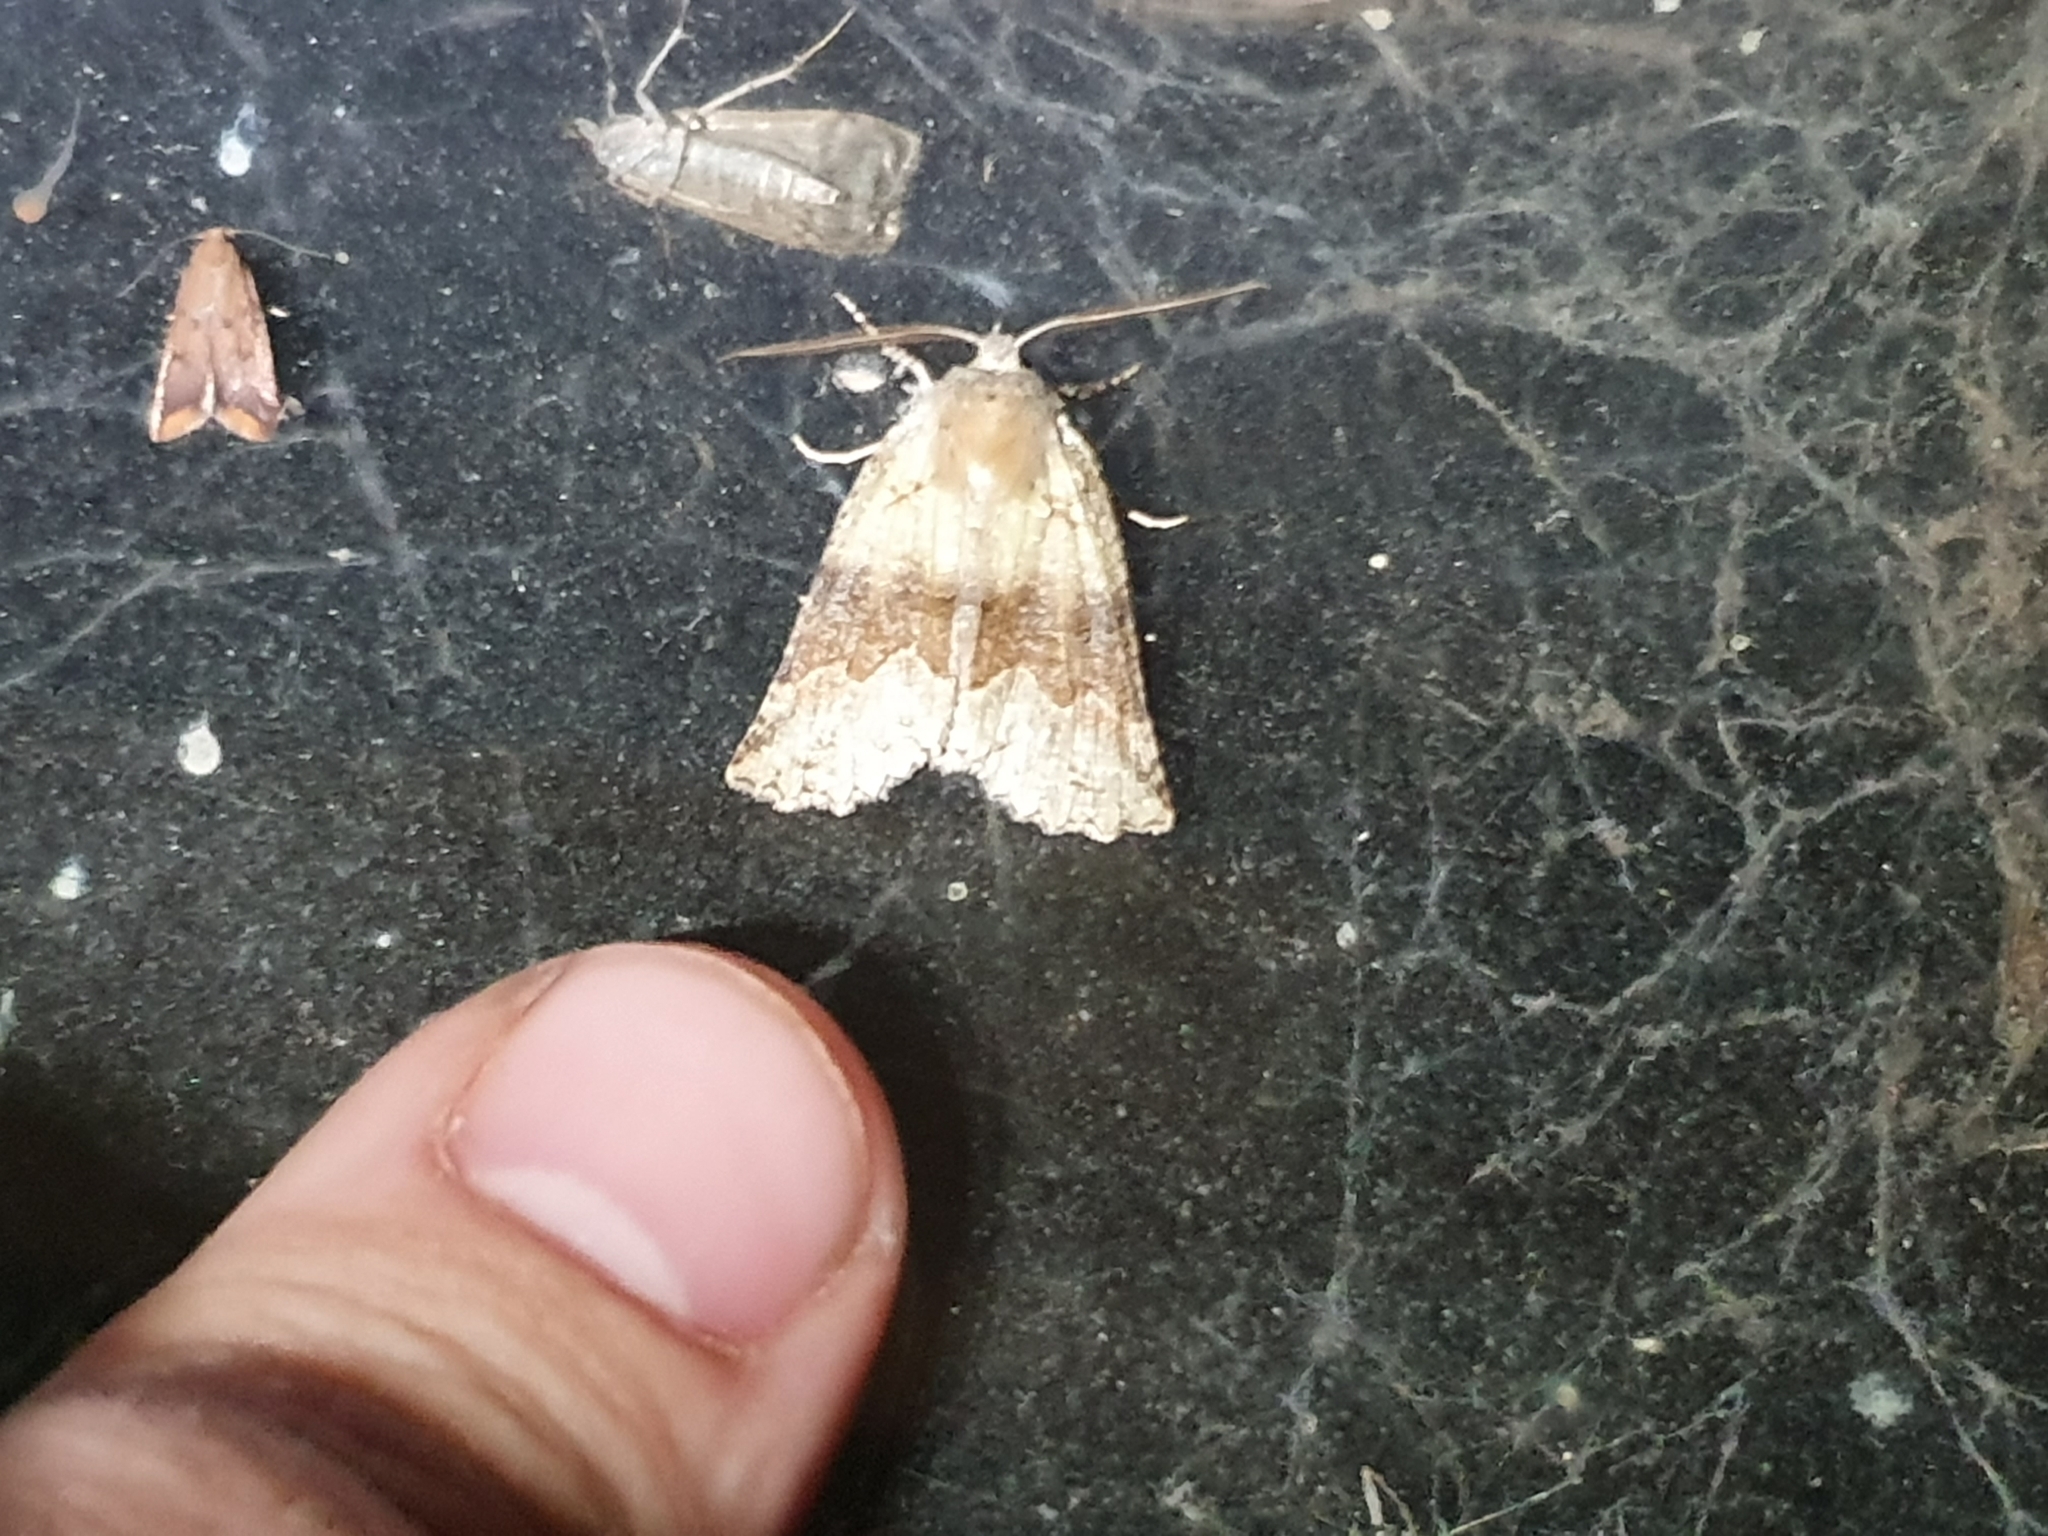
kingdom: Animalia
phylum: Arthropoda
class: Insecta
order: Lepidoptera
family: Geometridae
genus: Declana
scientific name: Declana floccosa
